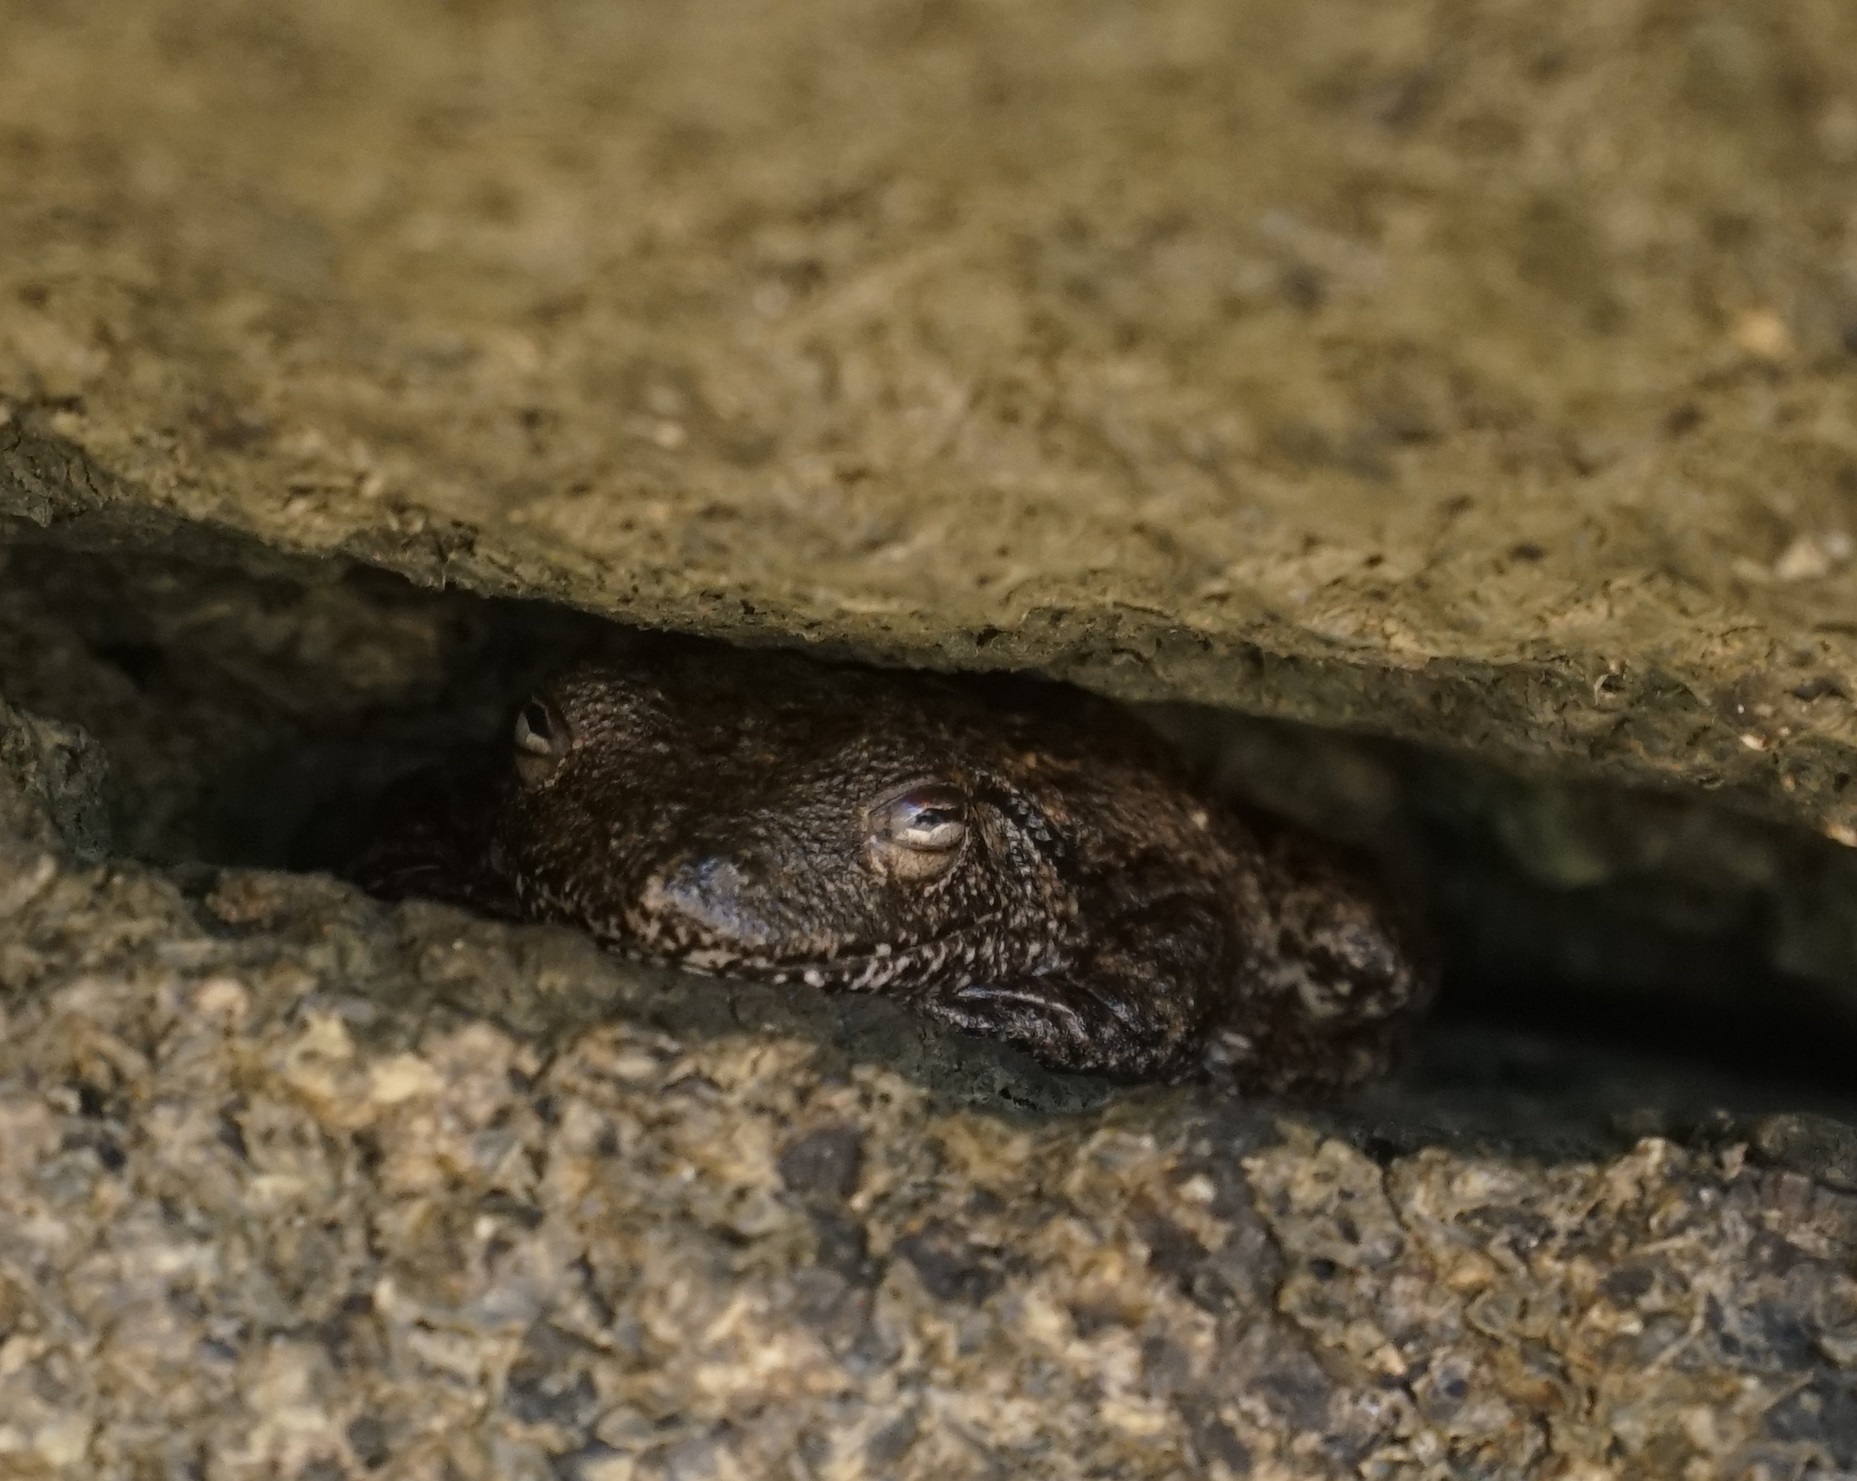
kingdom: Animalia
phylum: Chordata
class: Amphibia
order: Anura
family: Pelodryadidae
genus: Litoria
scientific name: Litoria rothii
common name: Roth’s tree frog
